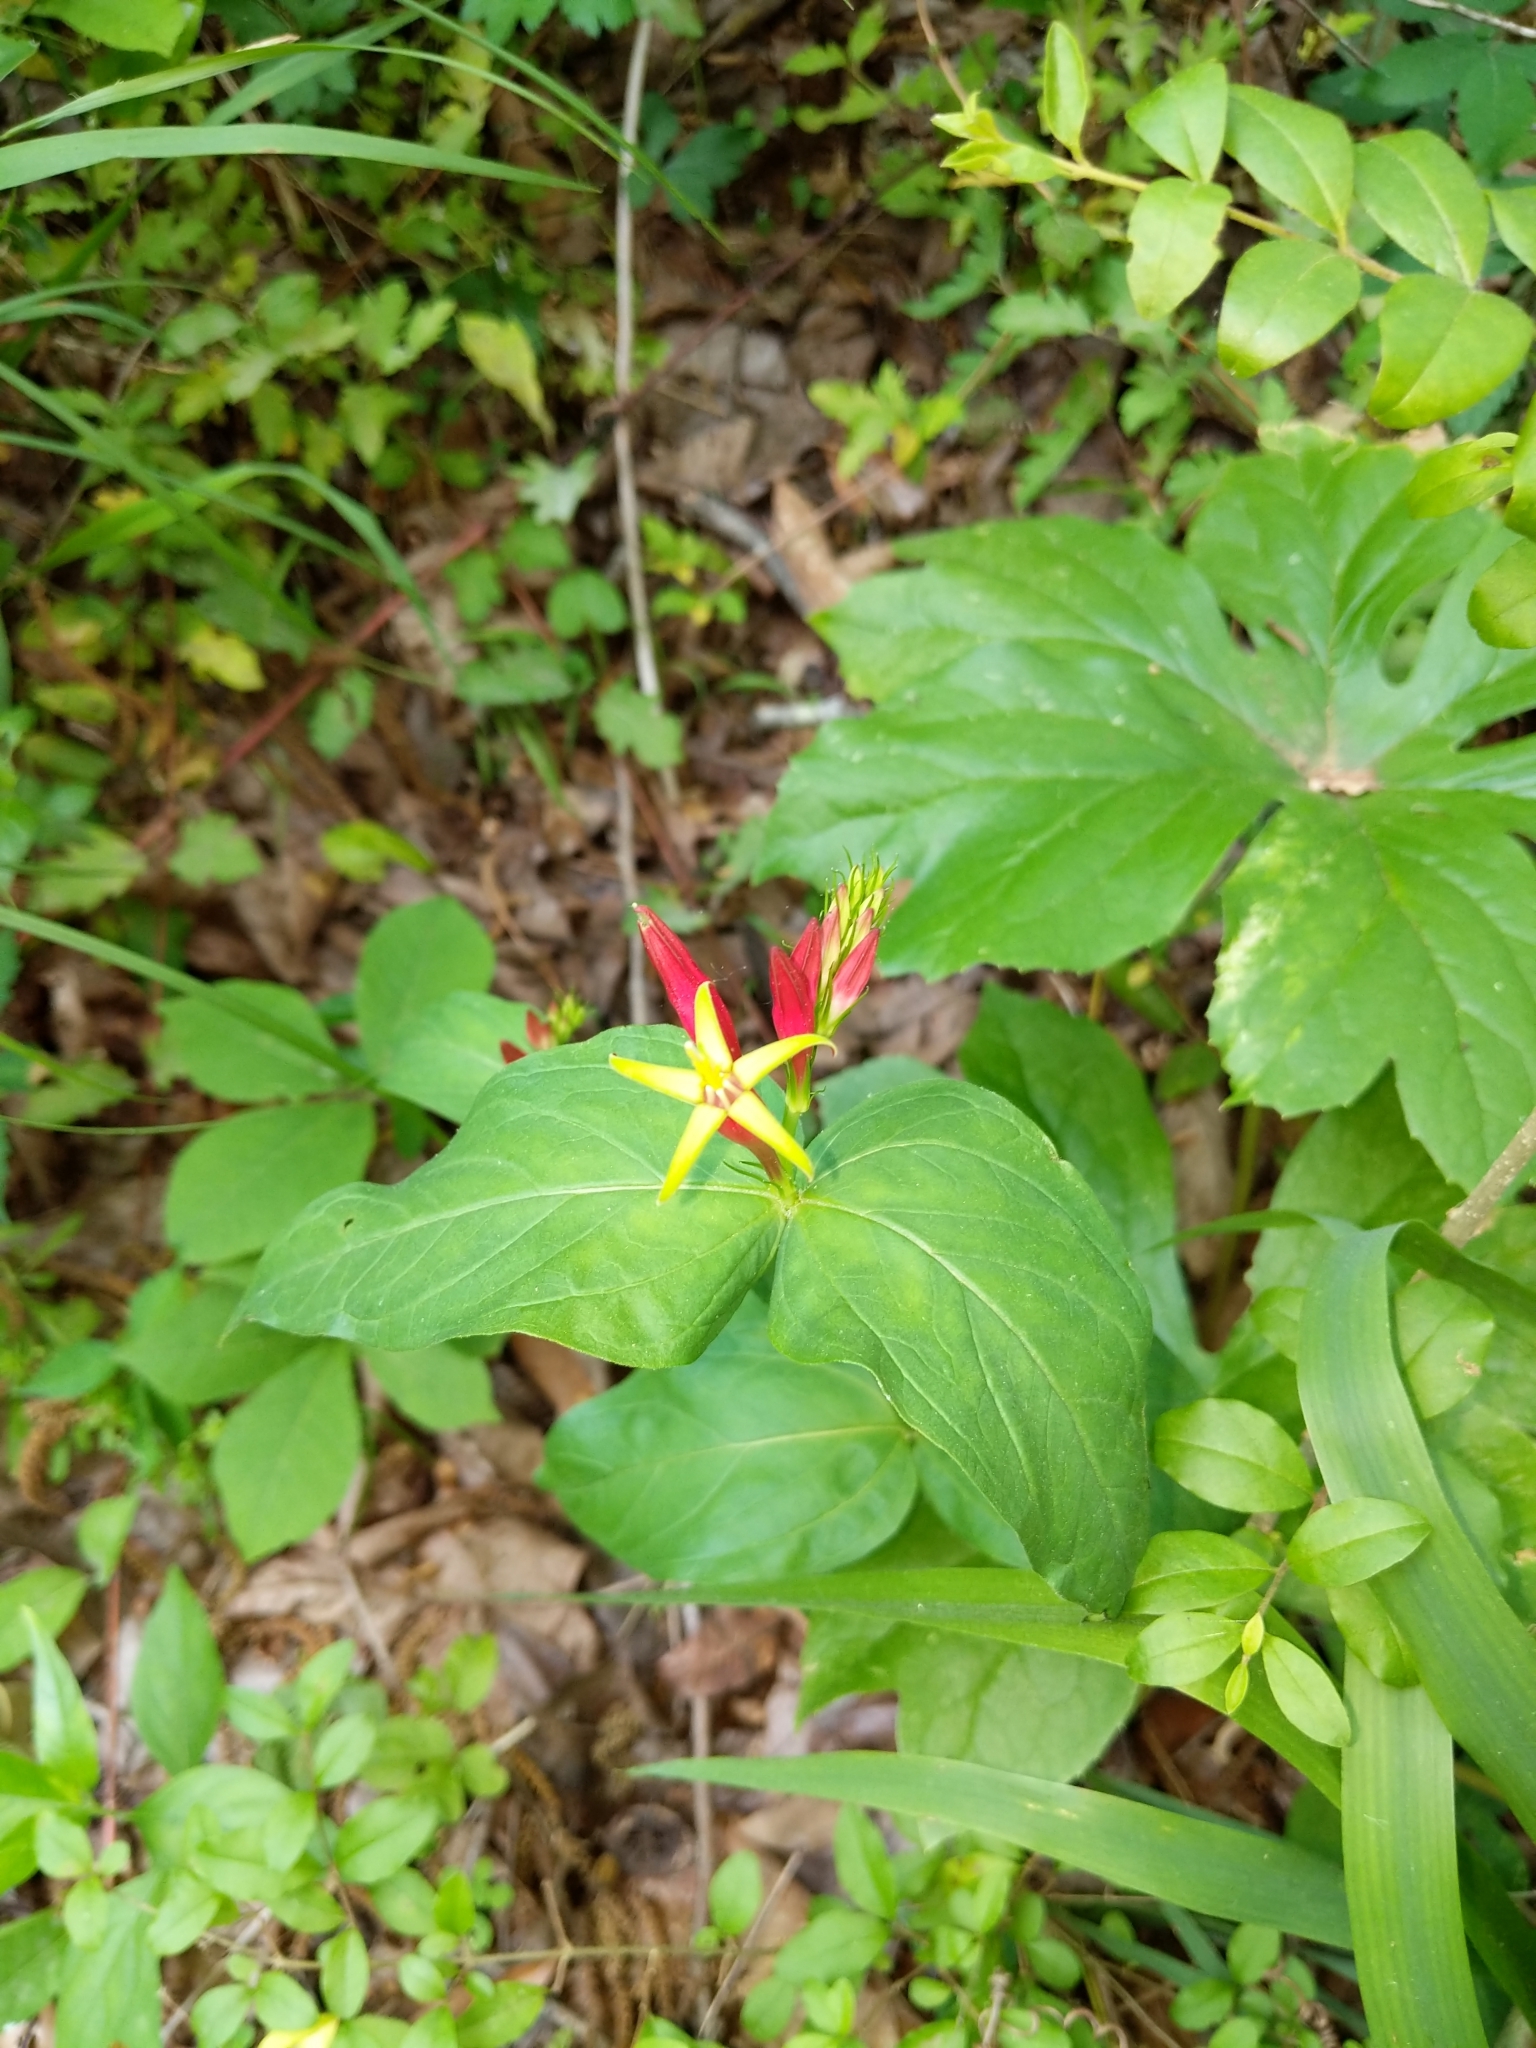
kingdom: Plantae
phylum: Tracheophyta
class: Magnoliopsida
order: Gentianales
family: Loganiaceae
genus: Spigelia
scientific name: Spigelia marilandica
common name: Indian-pink
